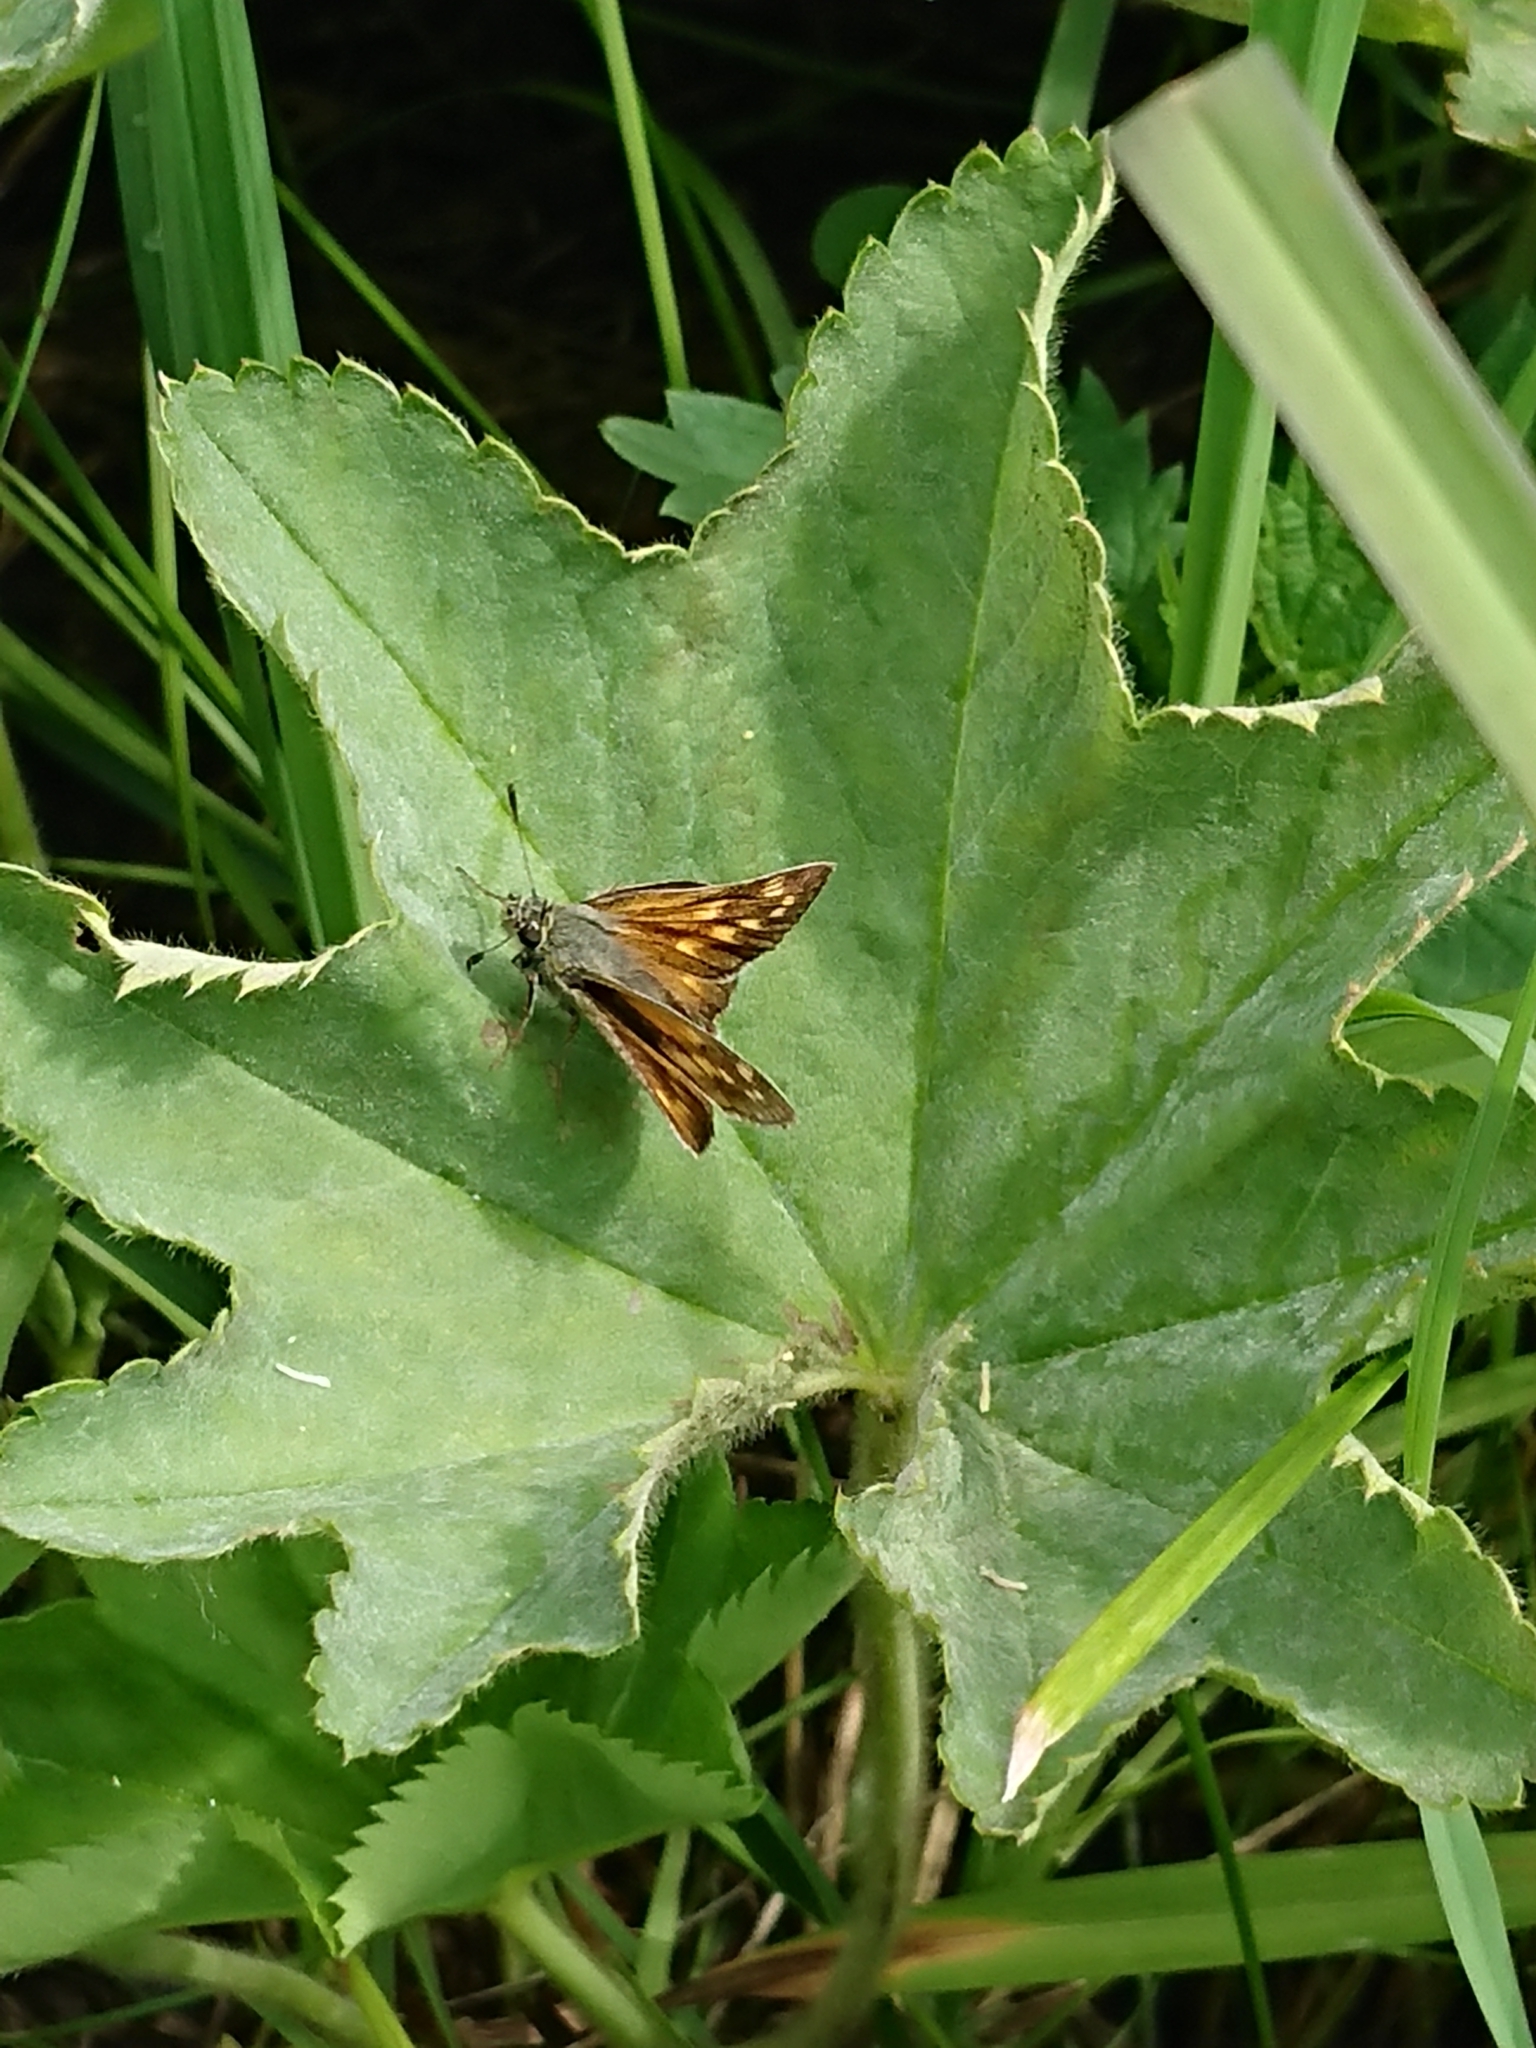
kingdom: Animalia
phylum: Arthropoda
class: Insecta
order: Lepidoptera
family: Hesperiidae
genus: Ochlodes
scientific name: Ochlodes venata
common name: Large skipper
